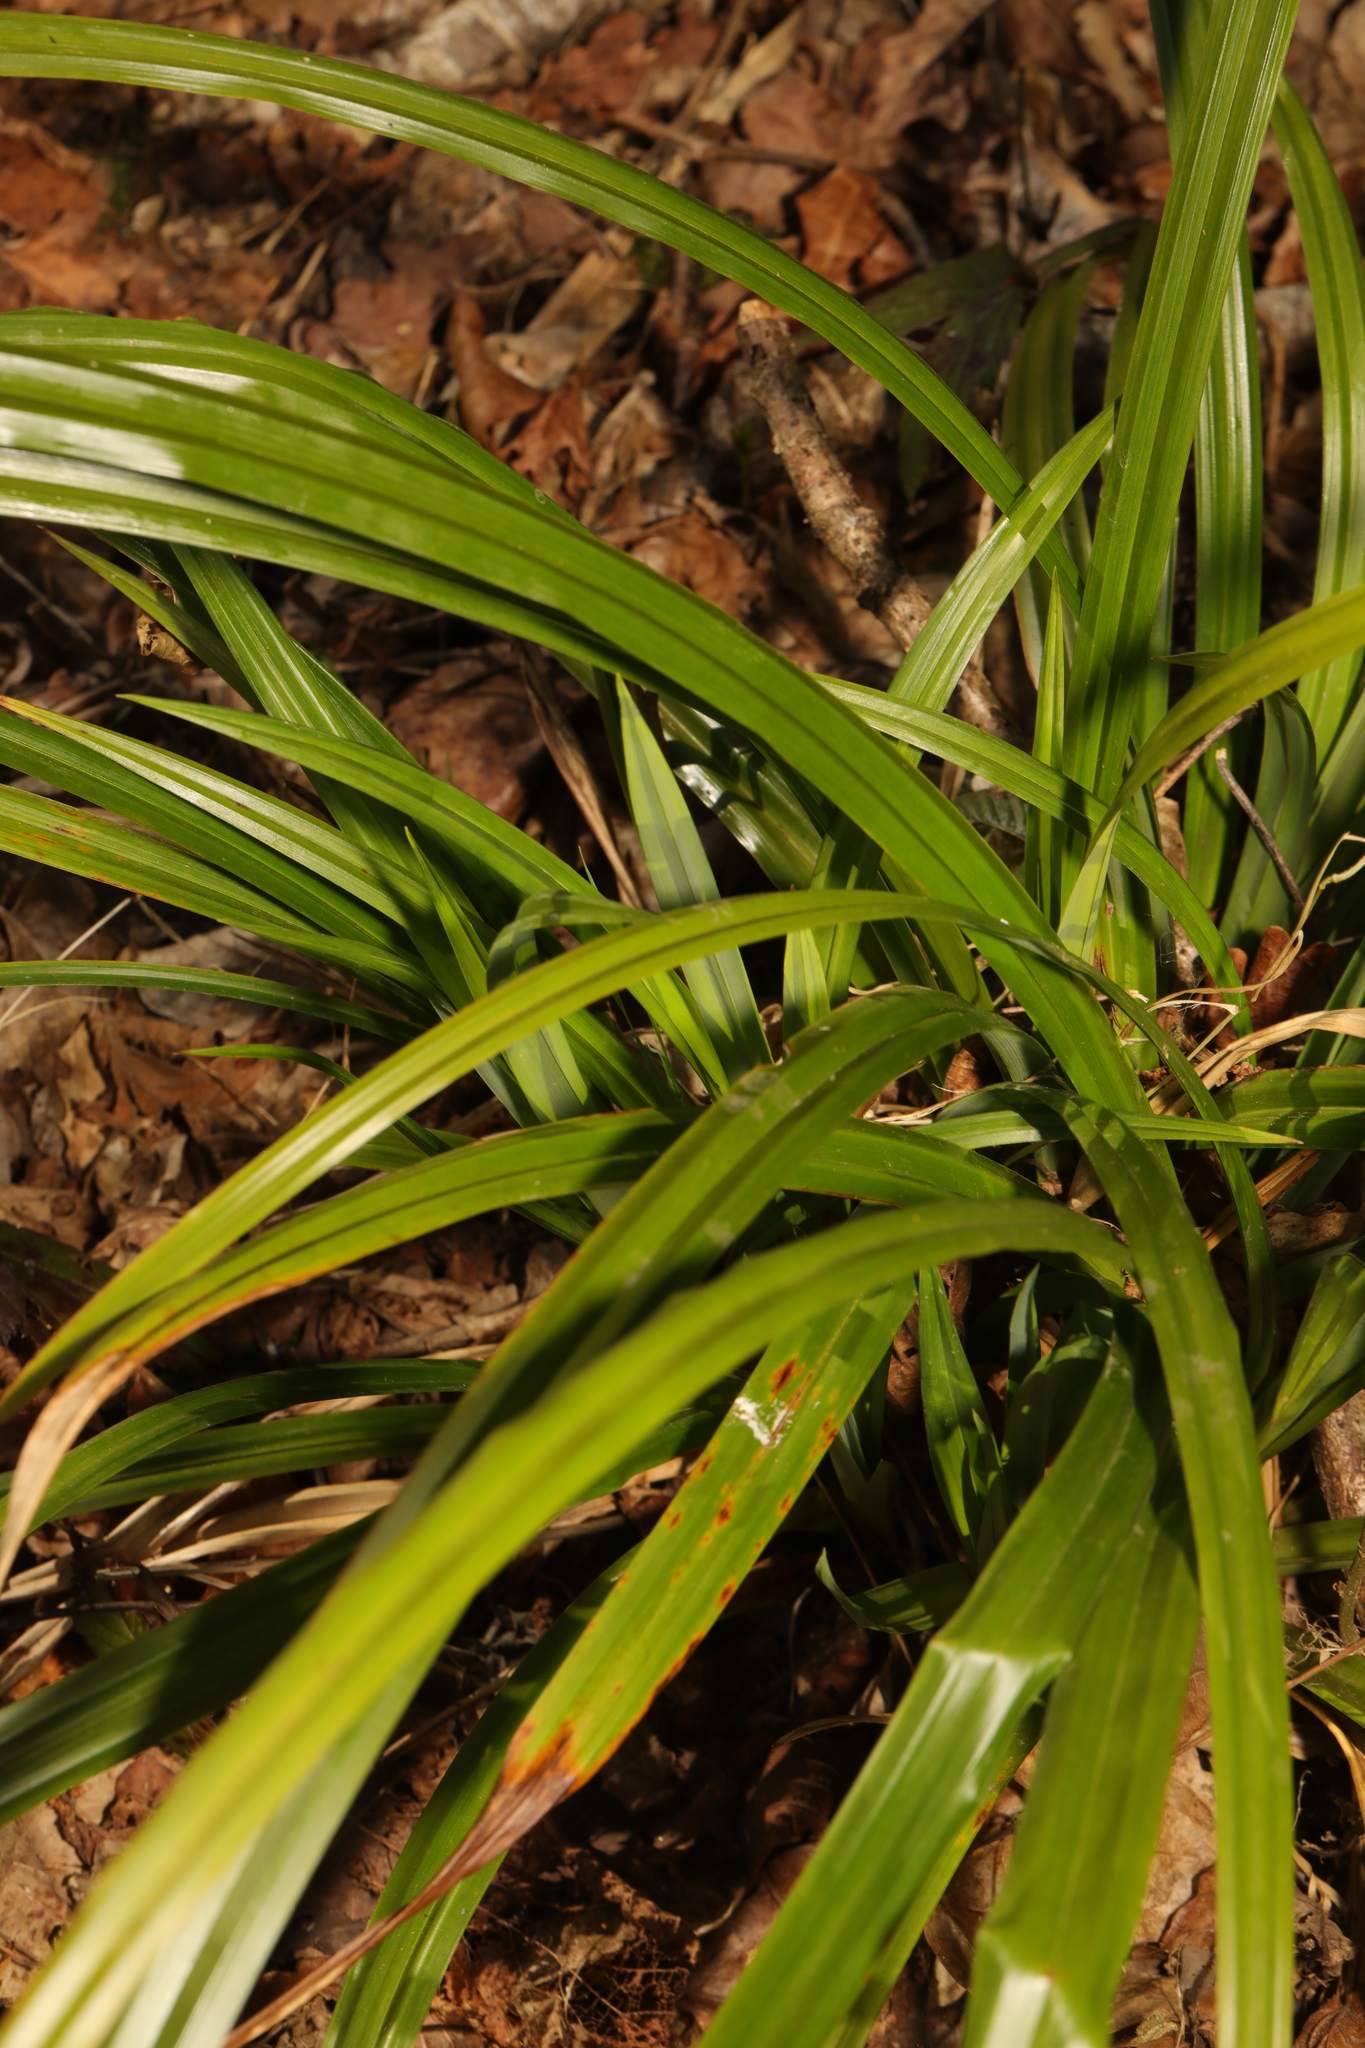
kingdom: Plantae
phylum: Tracheophyta
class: Liliopsida
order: Poales
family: Cyperaceae
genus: Carex
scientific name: Carex pendula
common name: Pendulous sedge
